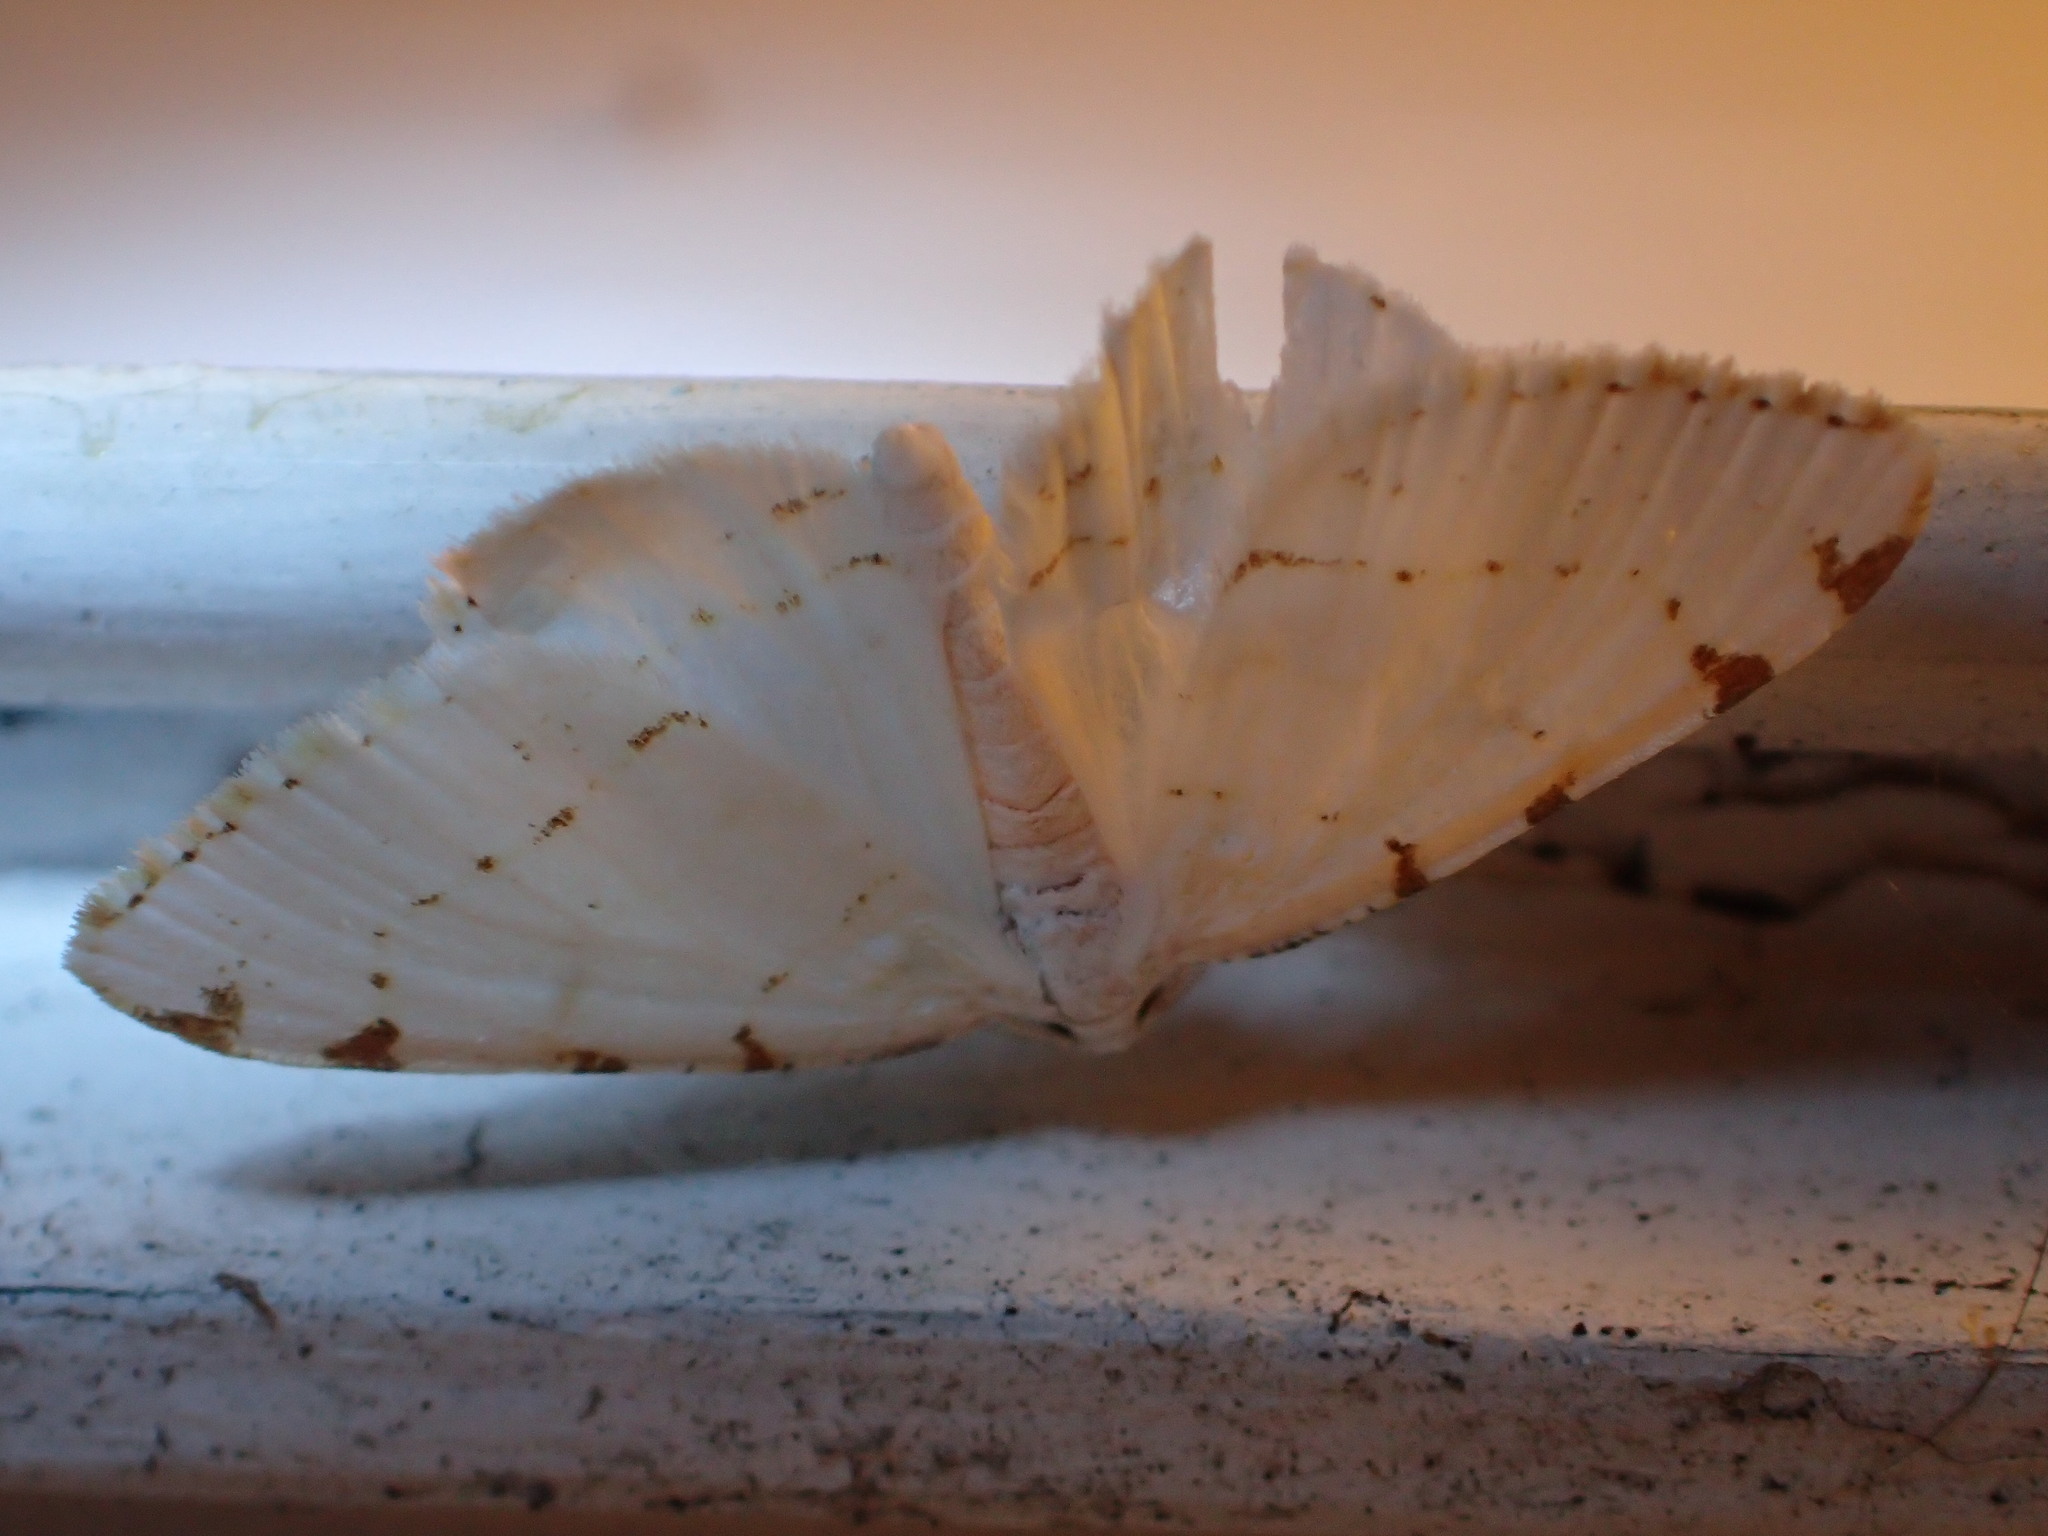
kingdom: Animalia
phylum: Arthropoda
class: Insecta
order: Lepidoptera
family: Geometridae
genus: Macaria
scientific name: Macaria pustularia
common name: Lesser maple spanworm moth
